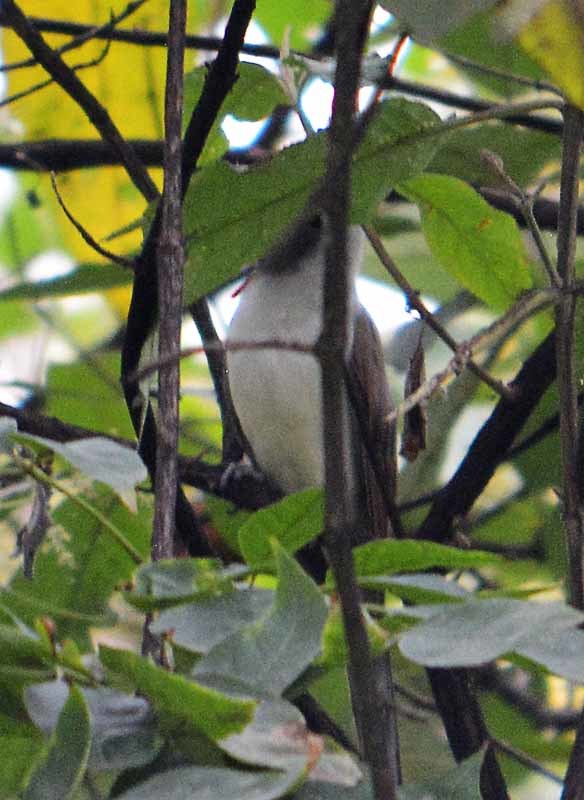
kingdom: Animalia
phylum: Chordata
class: Aves
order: Cuculiformes
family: Cuculidae
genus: Coccyzus
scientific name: Coccyzus americanus
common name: Yellow-billed cuckoo
